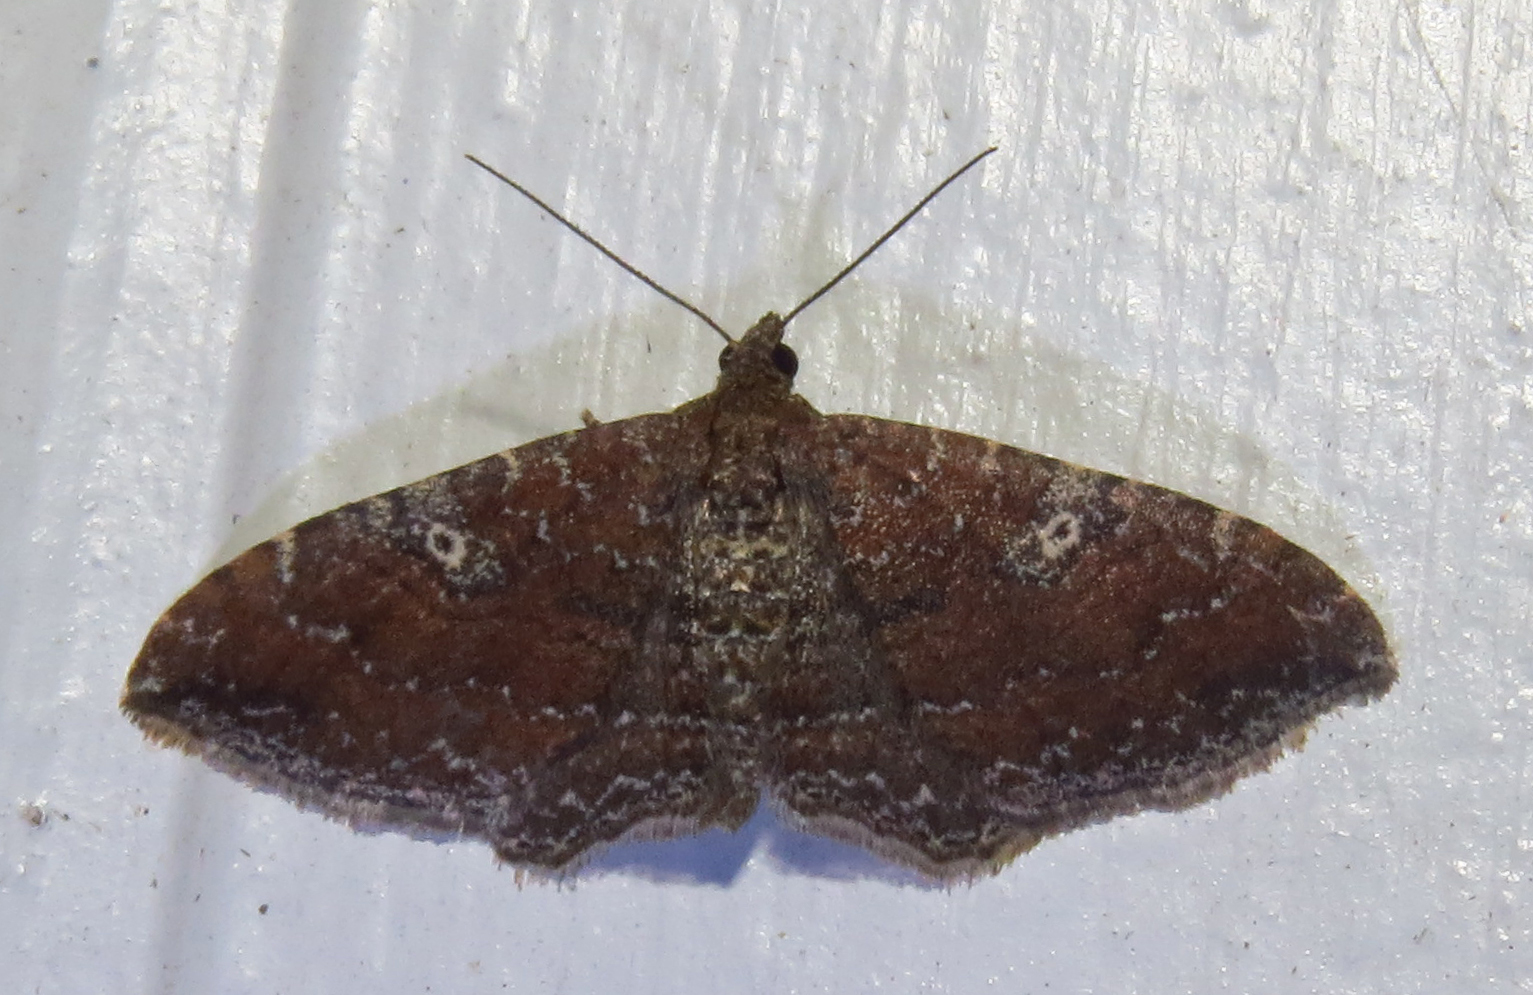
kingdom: Animalia
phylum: Arthropoda
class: Insecta
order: Lepidoptera
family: Geometridae
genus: Orthonama
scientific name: Orthonama obstipata
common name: The gem
